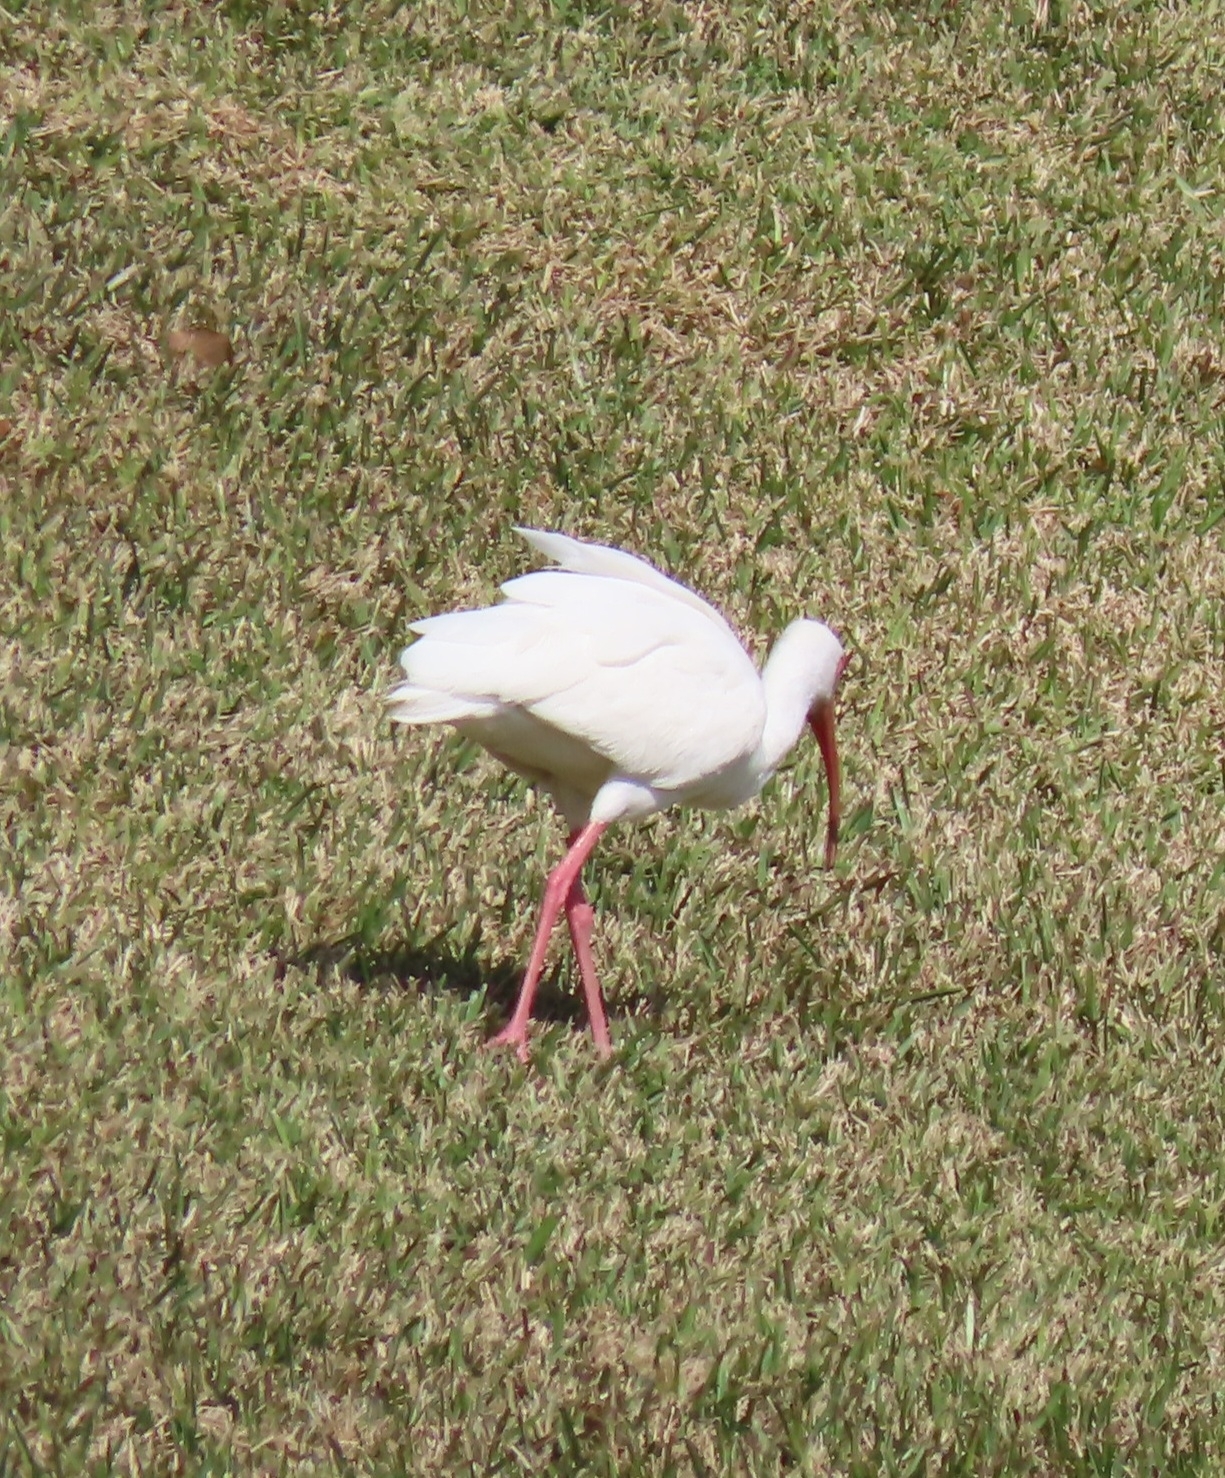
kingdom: Animalia
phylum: Chordata
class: Aves
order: Pelecaniformes
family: Threskiornithidae
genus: Eudocimus
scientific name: Eudocimus albus
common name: White ibis
